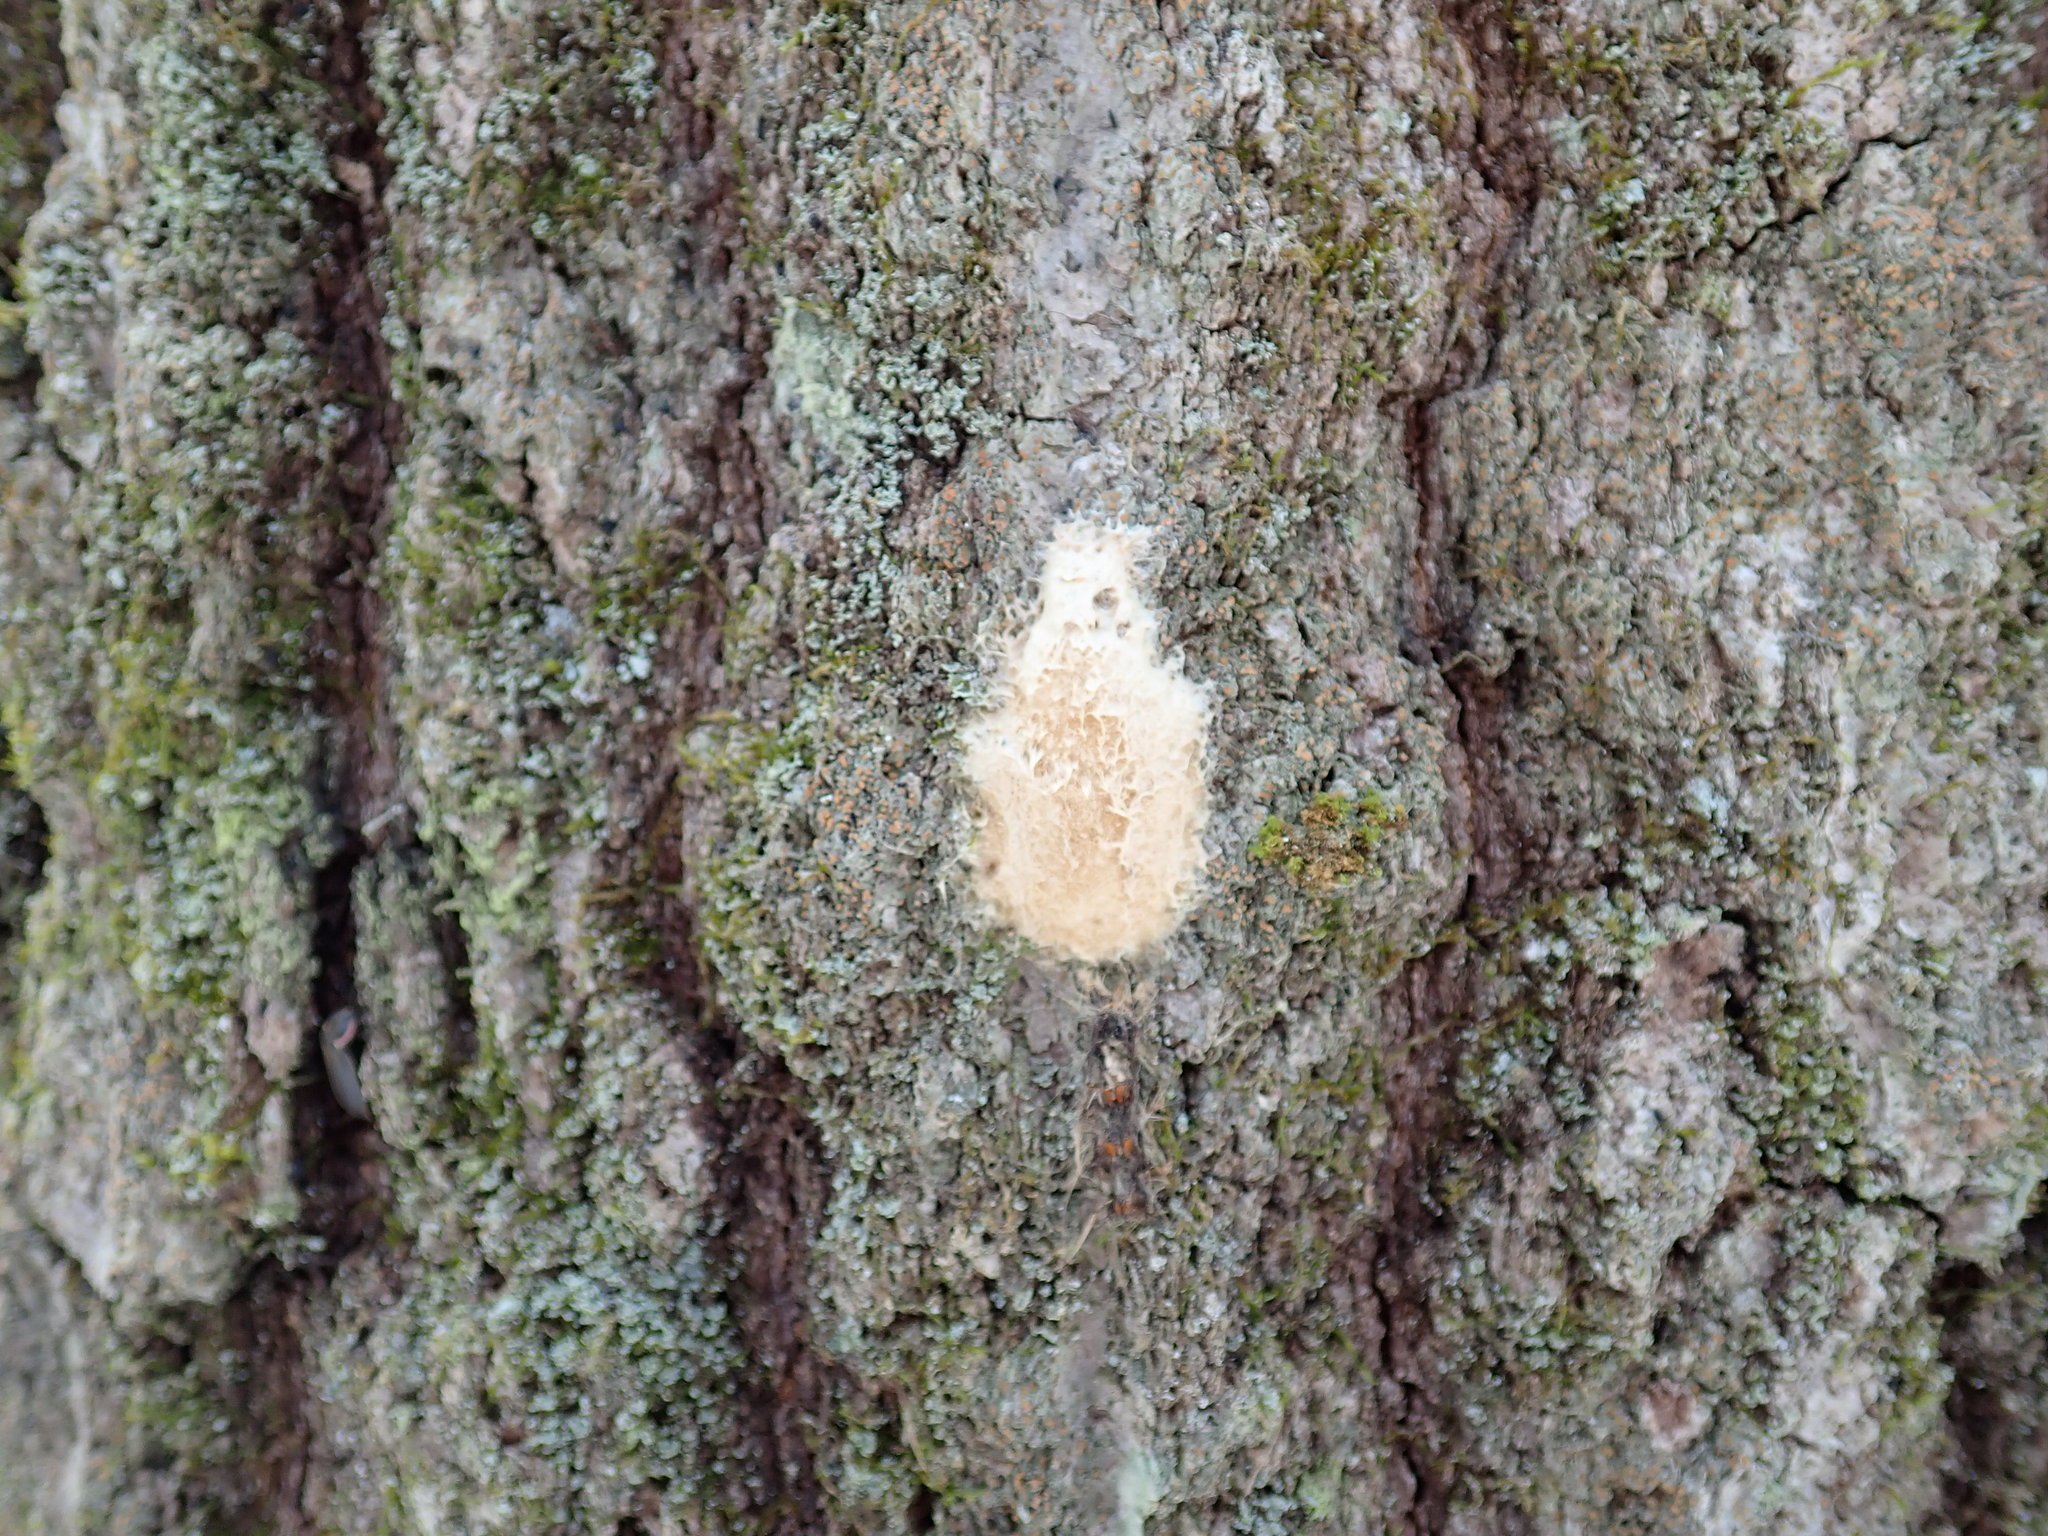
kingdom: Animalia
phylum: Arthropoda
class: Insecta
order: Lepidoptera
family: Erebidae
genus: Lymantria
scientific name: Lymantria dispar
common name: Gypsy moth
